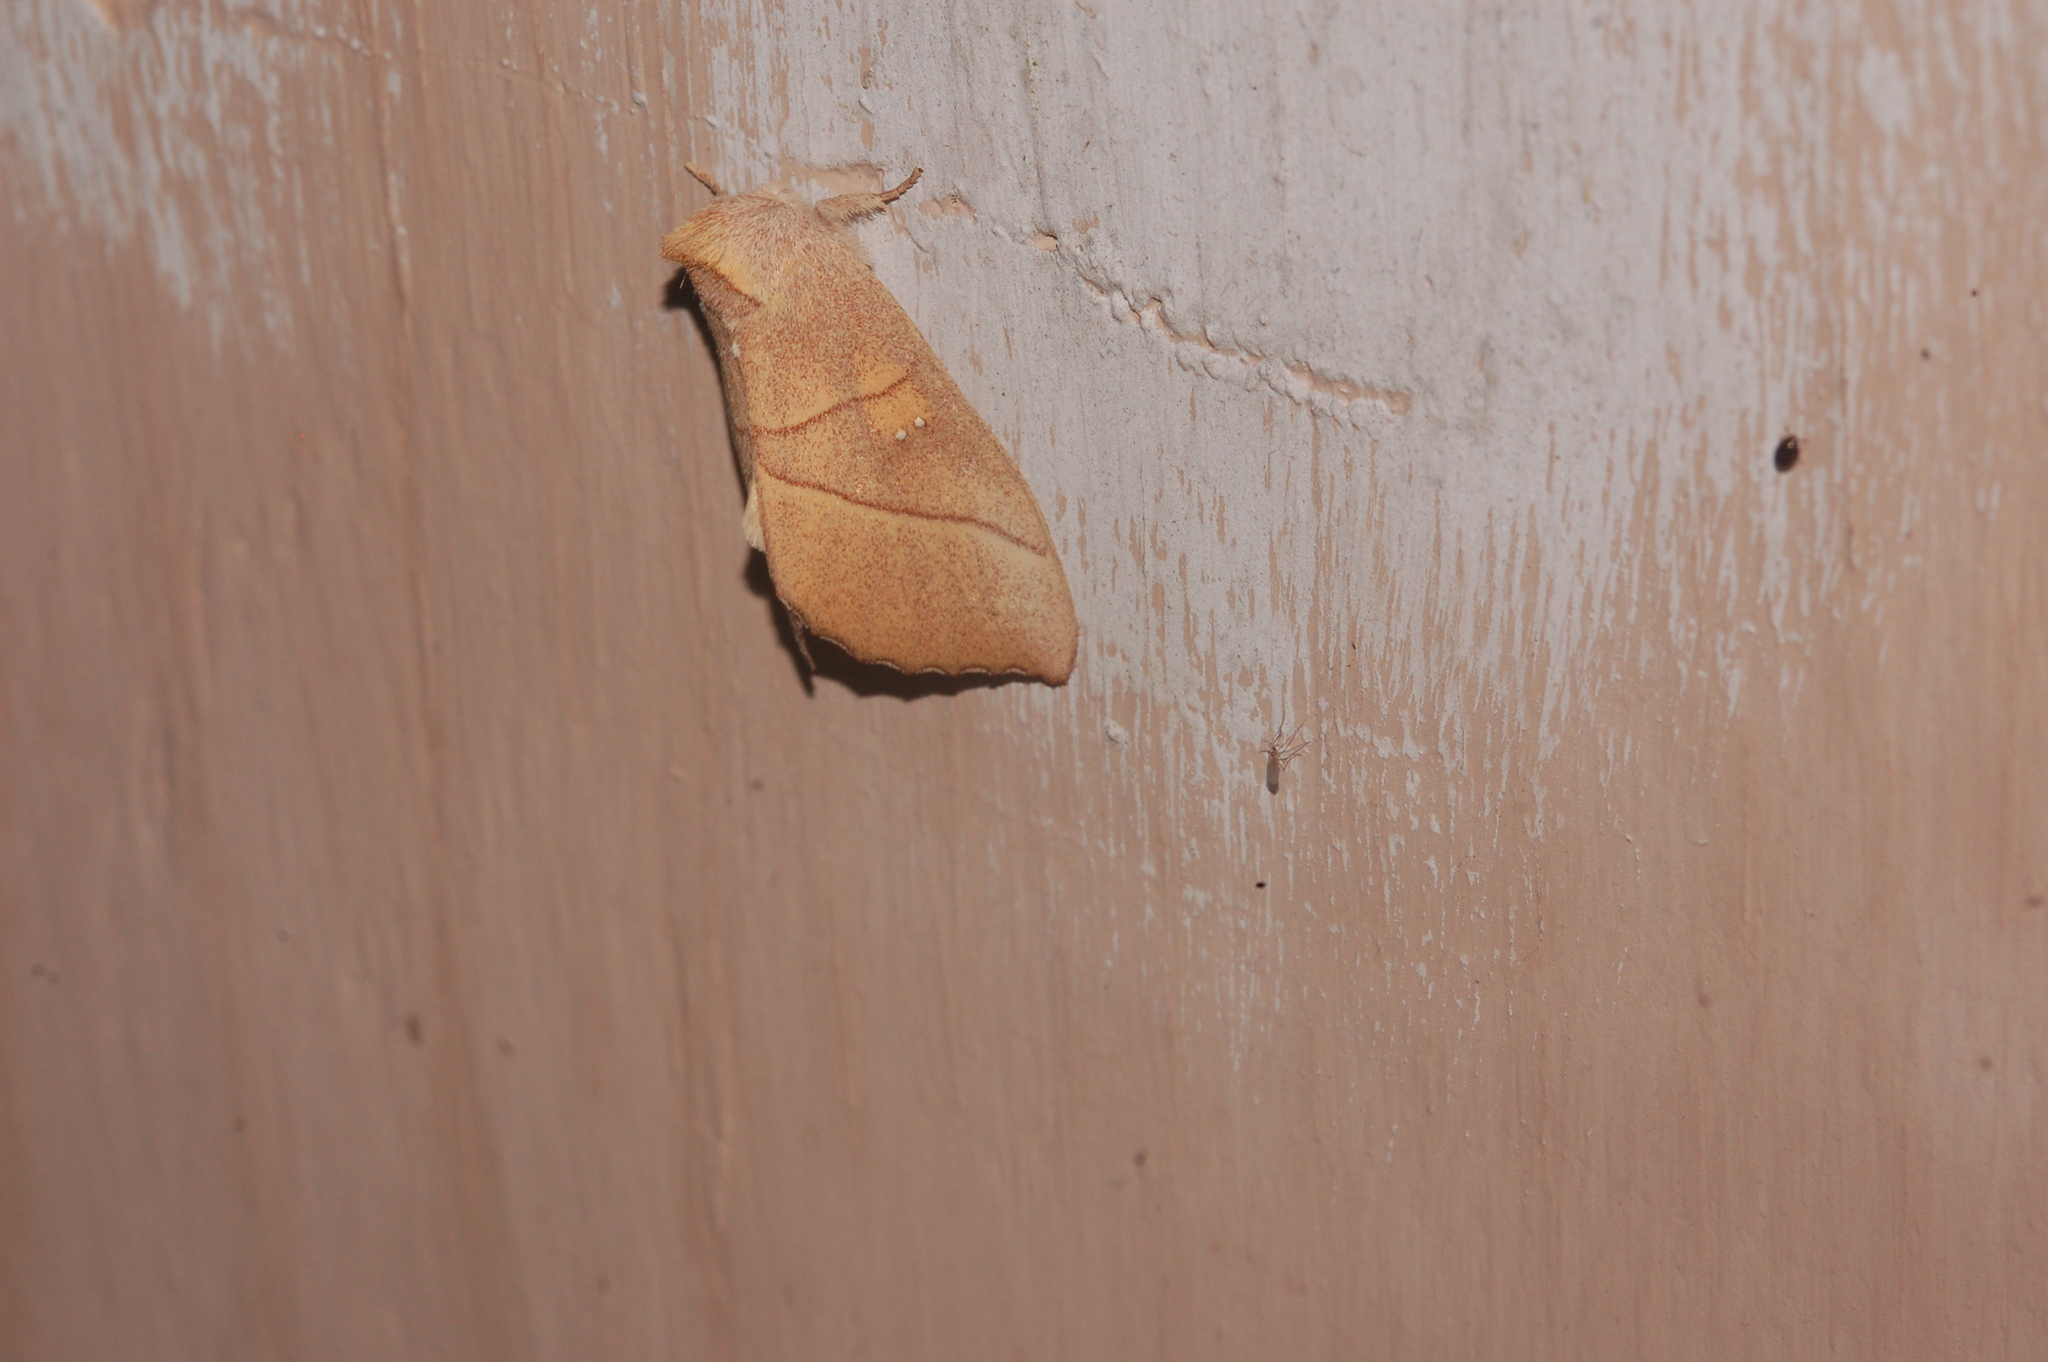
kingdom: Animalia
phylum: Arthropoda
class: Insecta
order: Lepidoptera
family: Notodontidae
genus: Nadata
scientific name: Nadata gibbosa
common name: White-dotted prominent
